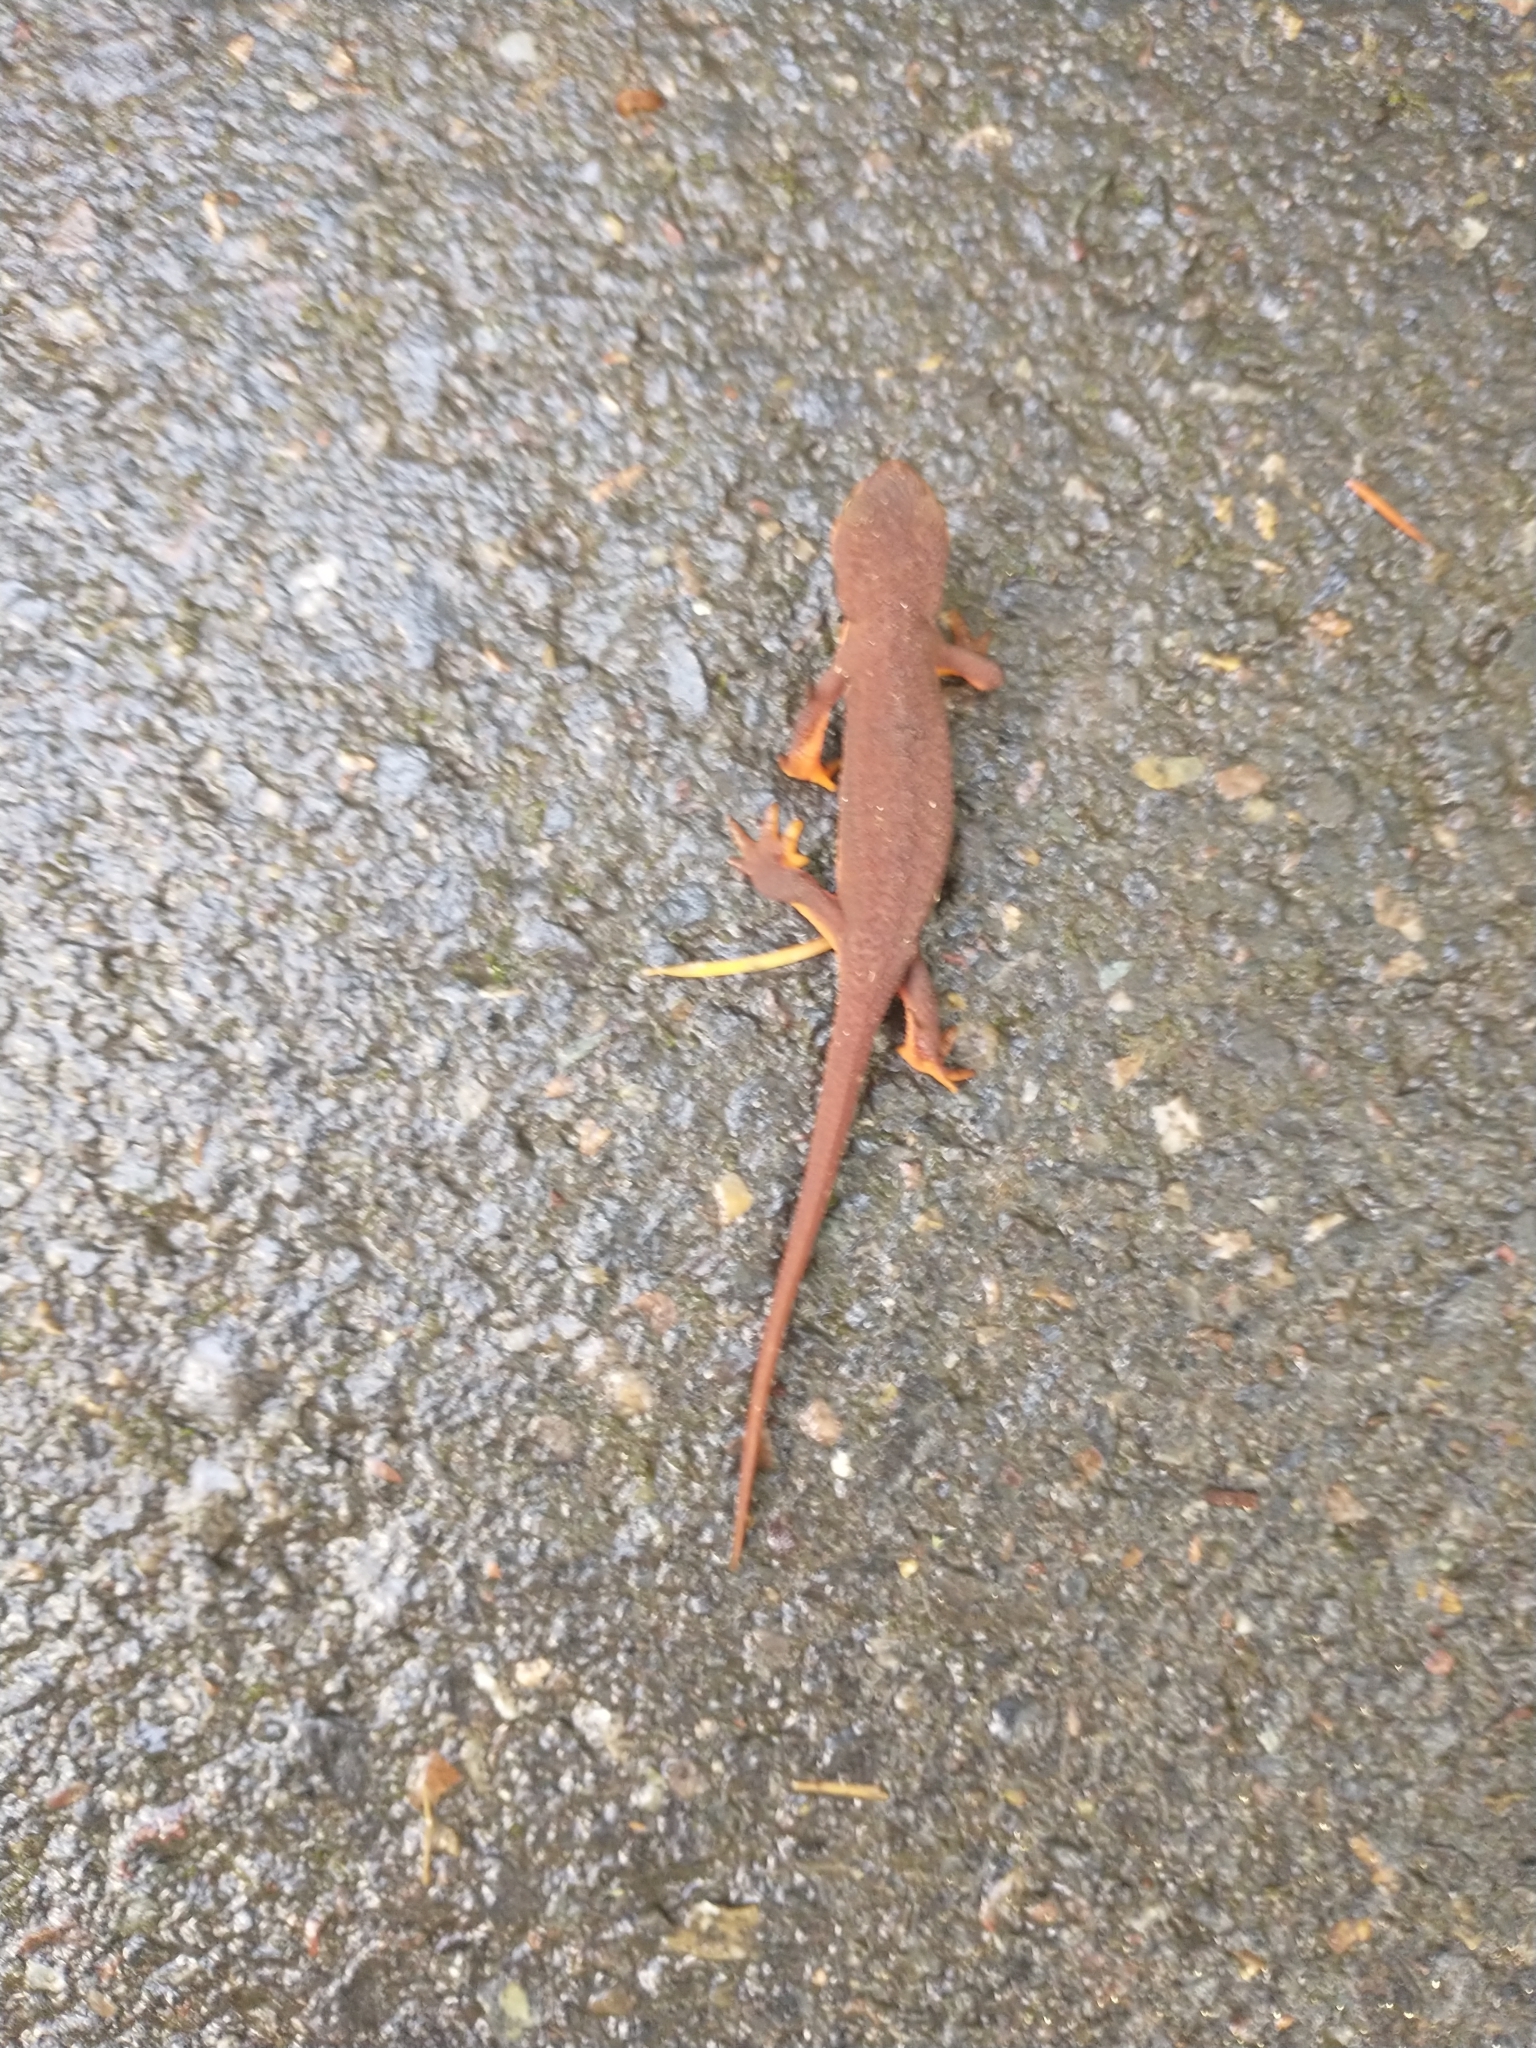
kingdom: Animalia
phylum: Chordata
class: Amphibia
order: Caudata
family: Salamandridae
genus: Taricha
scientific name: Taricha granulosa
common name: Roughskin newt
